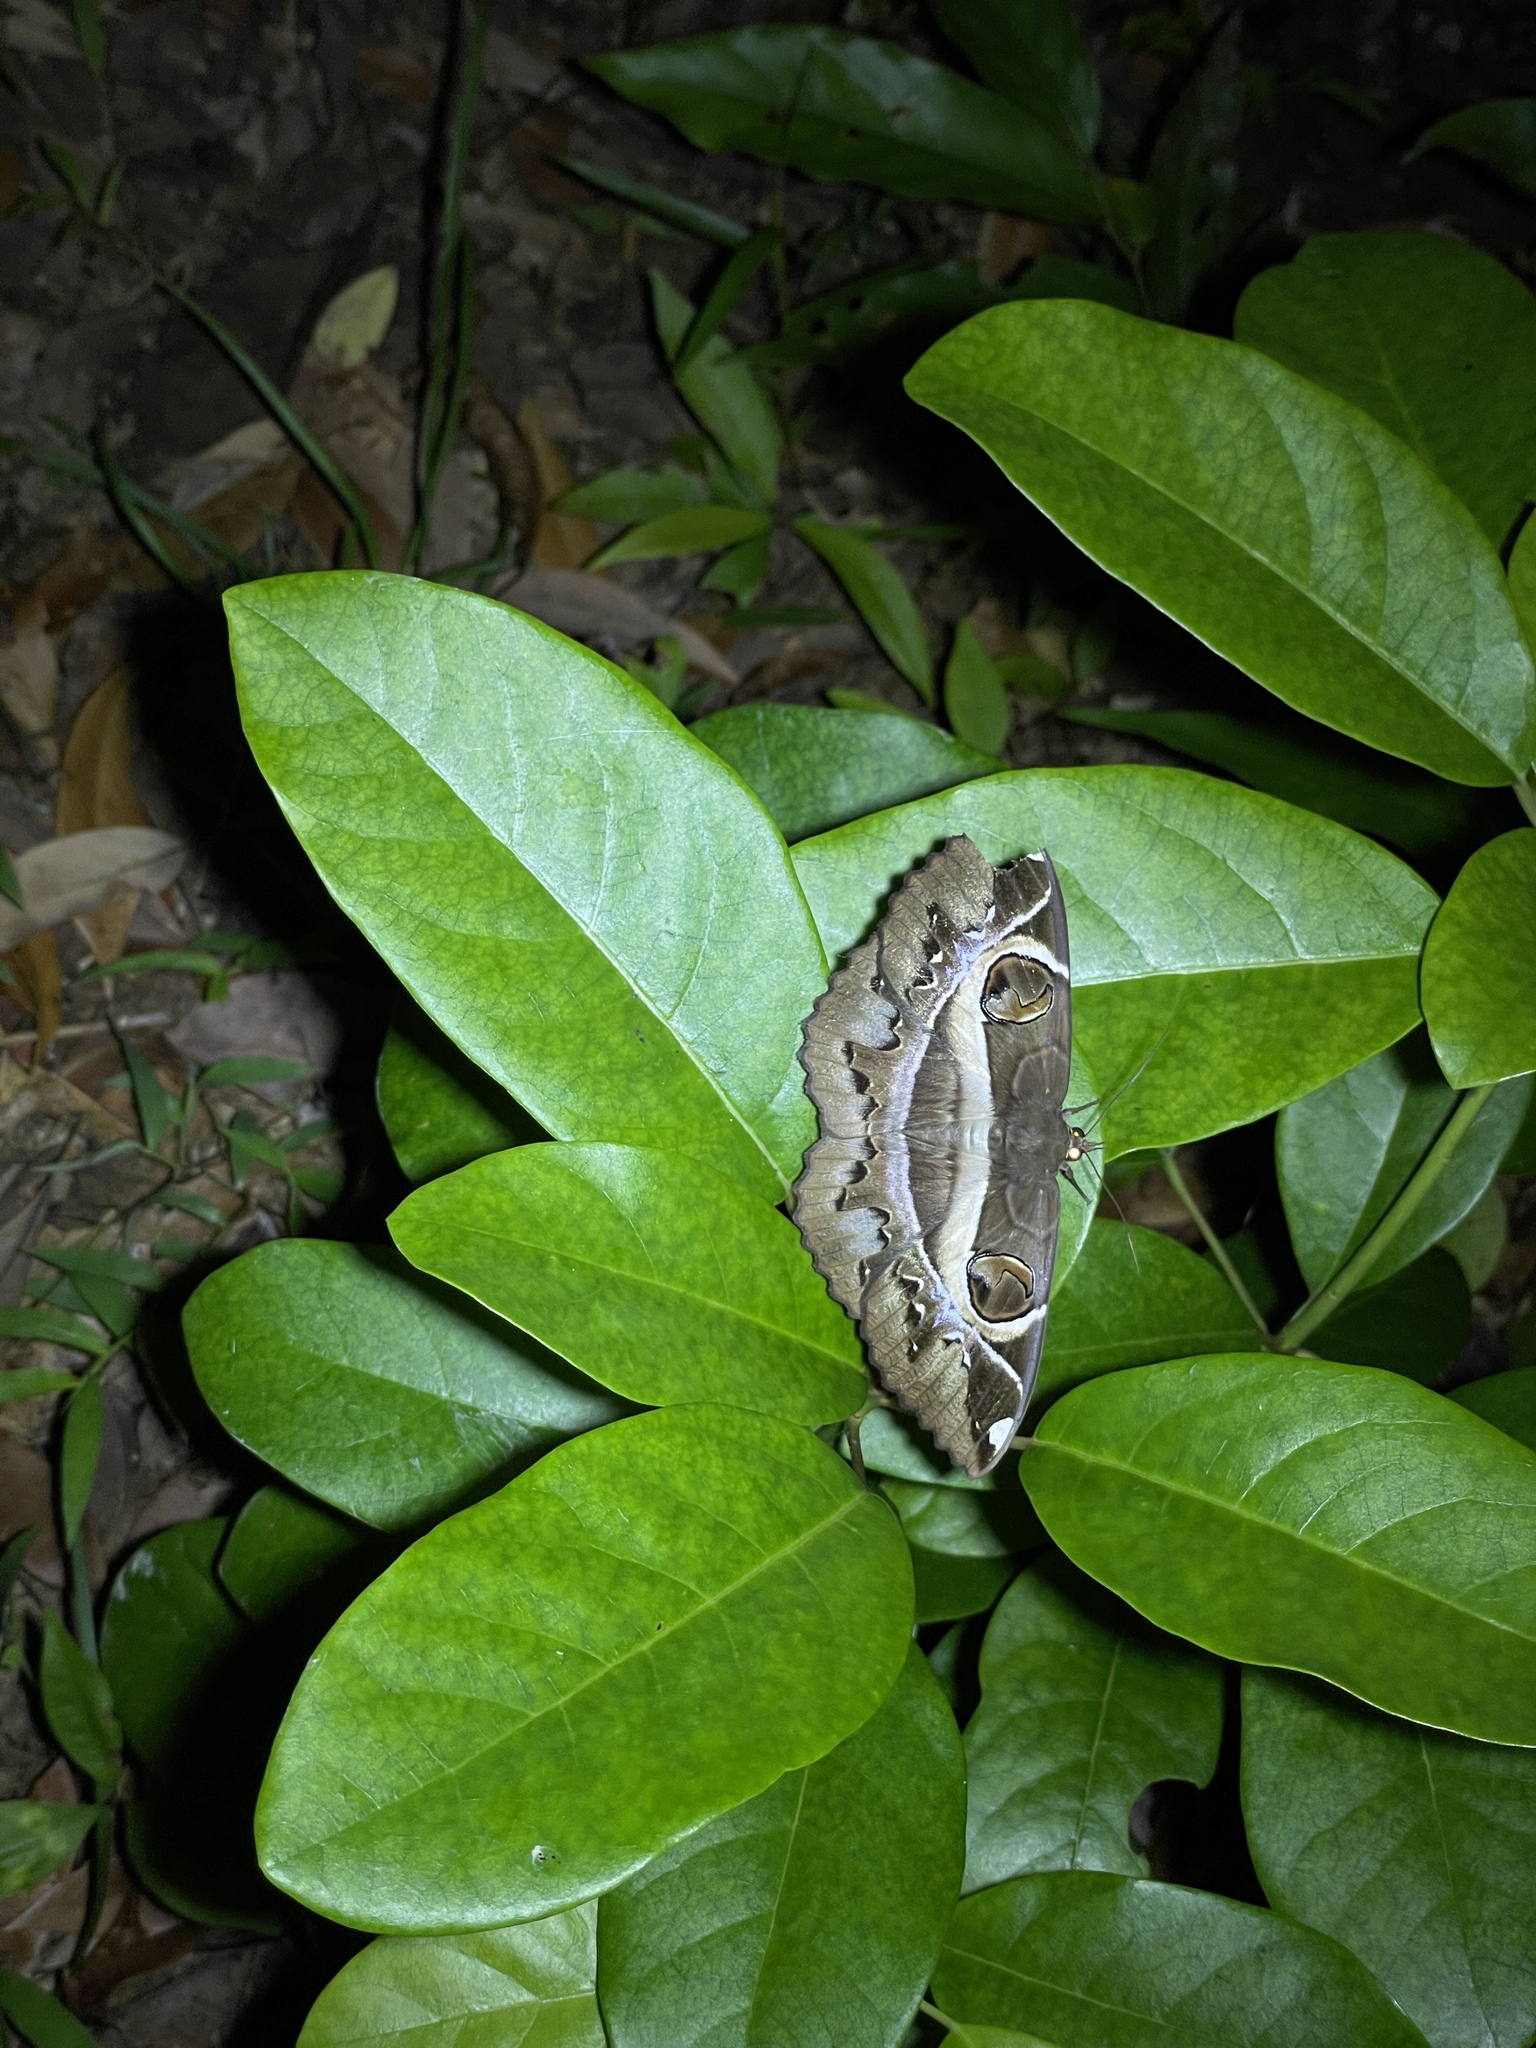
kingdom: Animalia
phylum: Arthropoda
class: Insecta
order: Lepidoptera
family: Erebidae
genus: Erebus
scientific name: Erebus ephesperis
